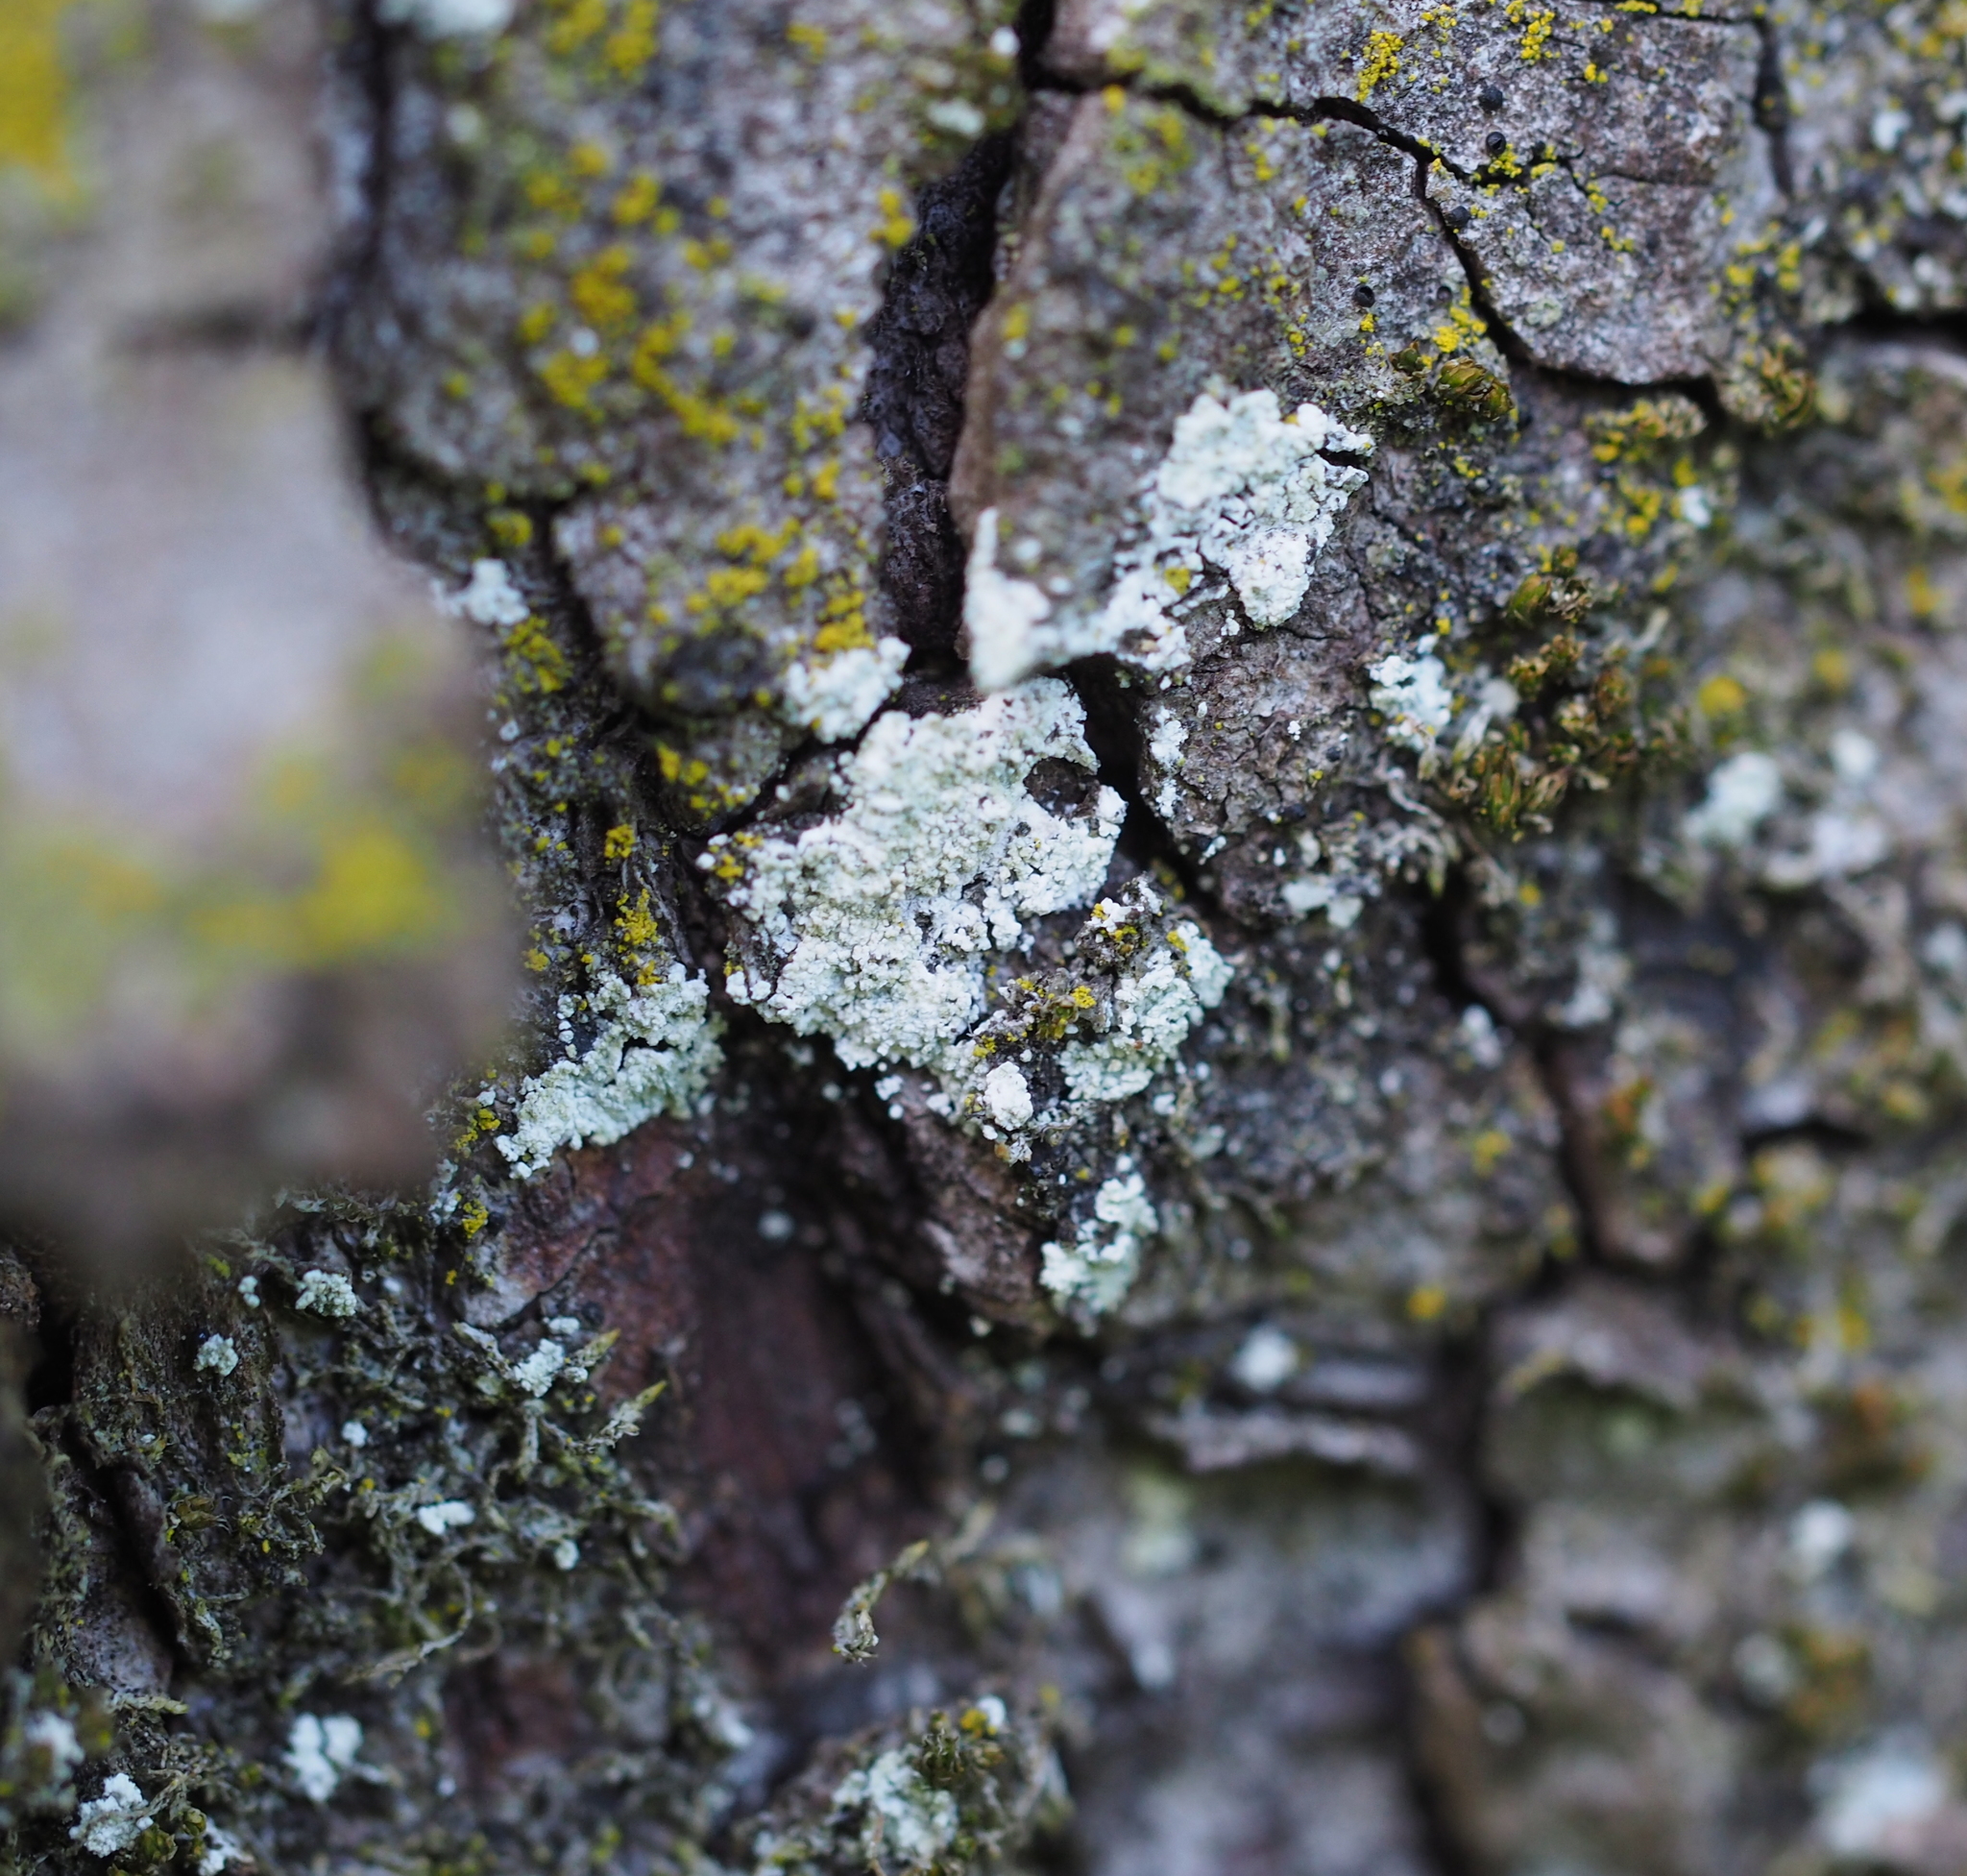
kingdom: Fungi
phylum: Ascomycota
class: Lecanoromycetes
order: Lecanorales
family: Stereocaulaceae
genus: Lepraria
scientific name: Lepraria
